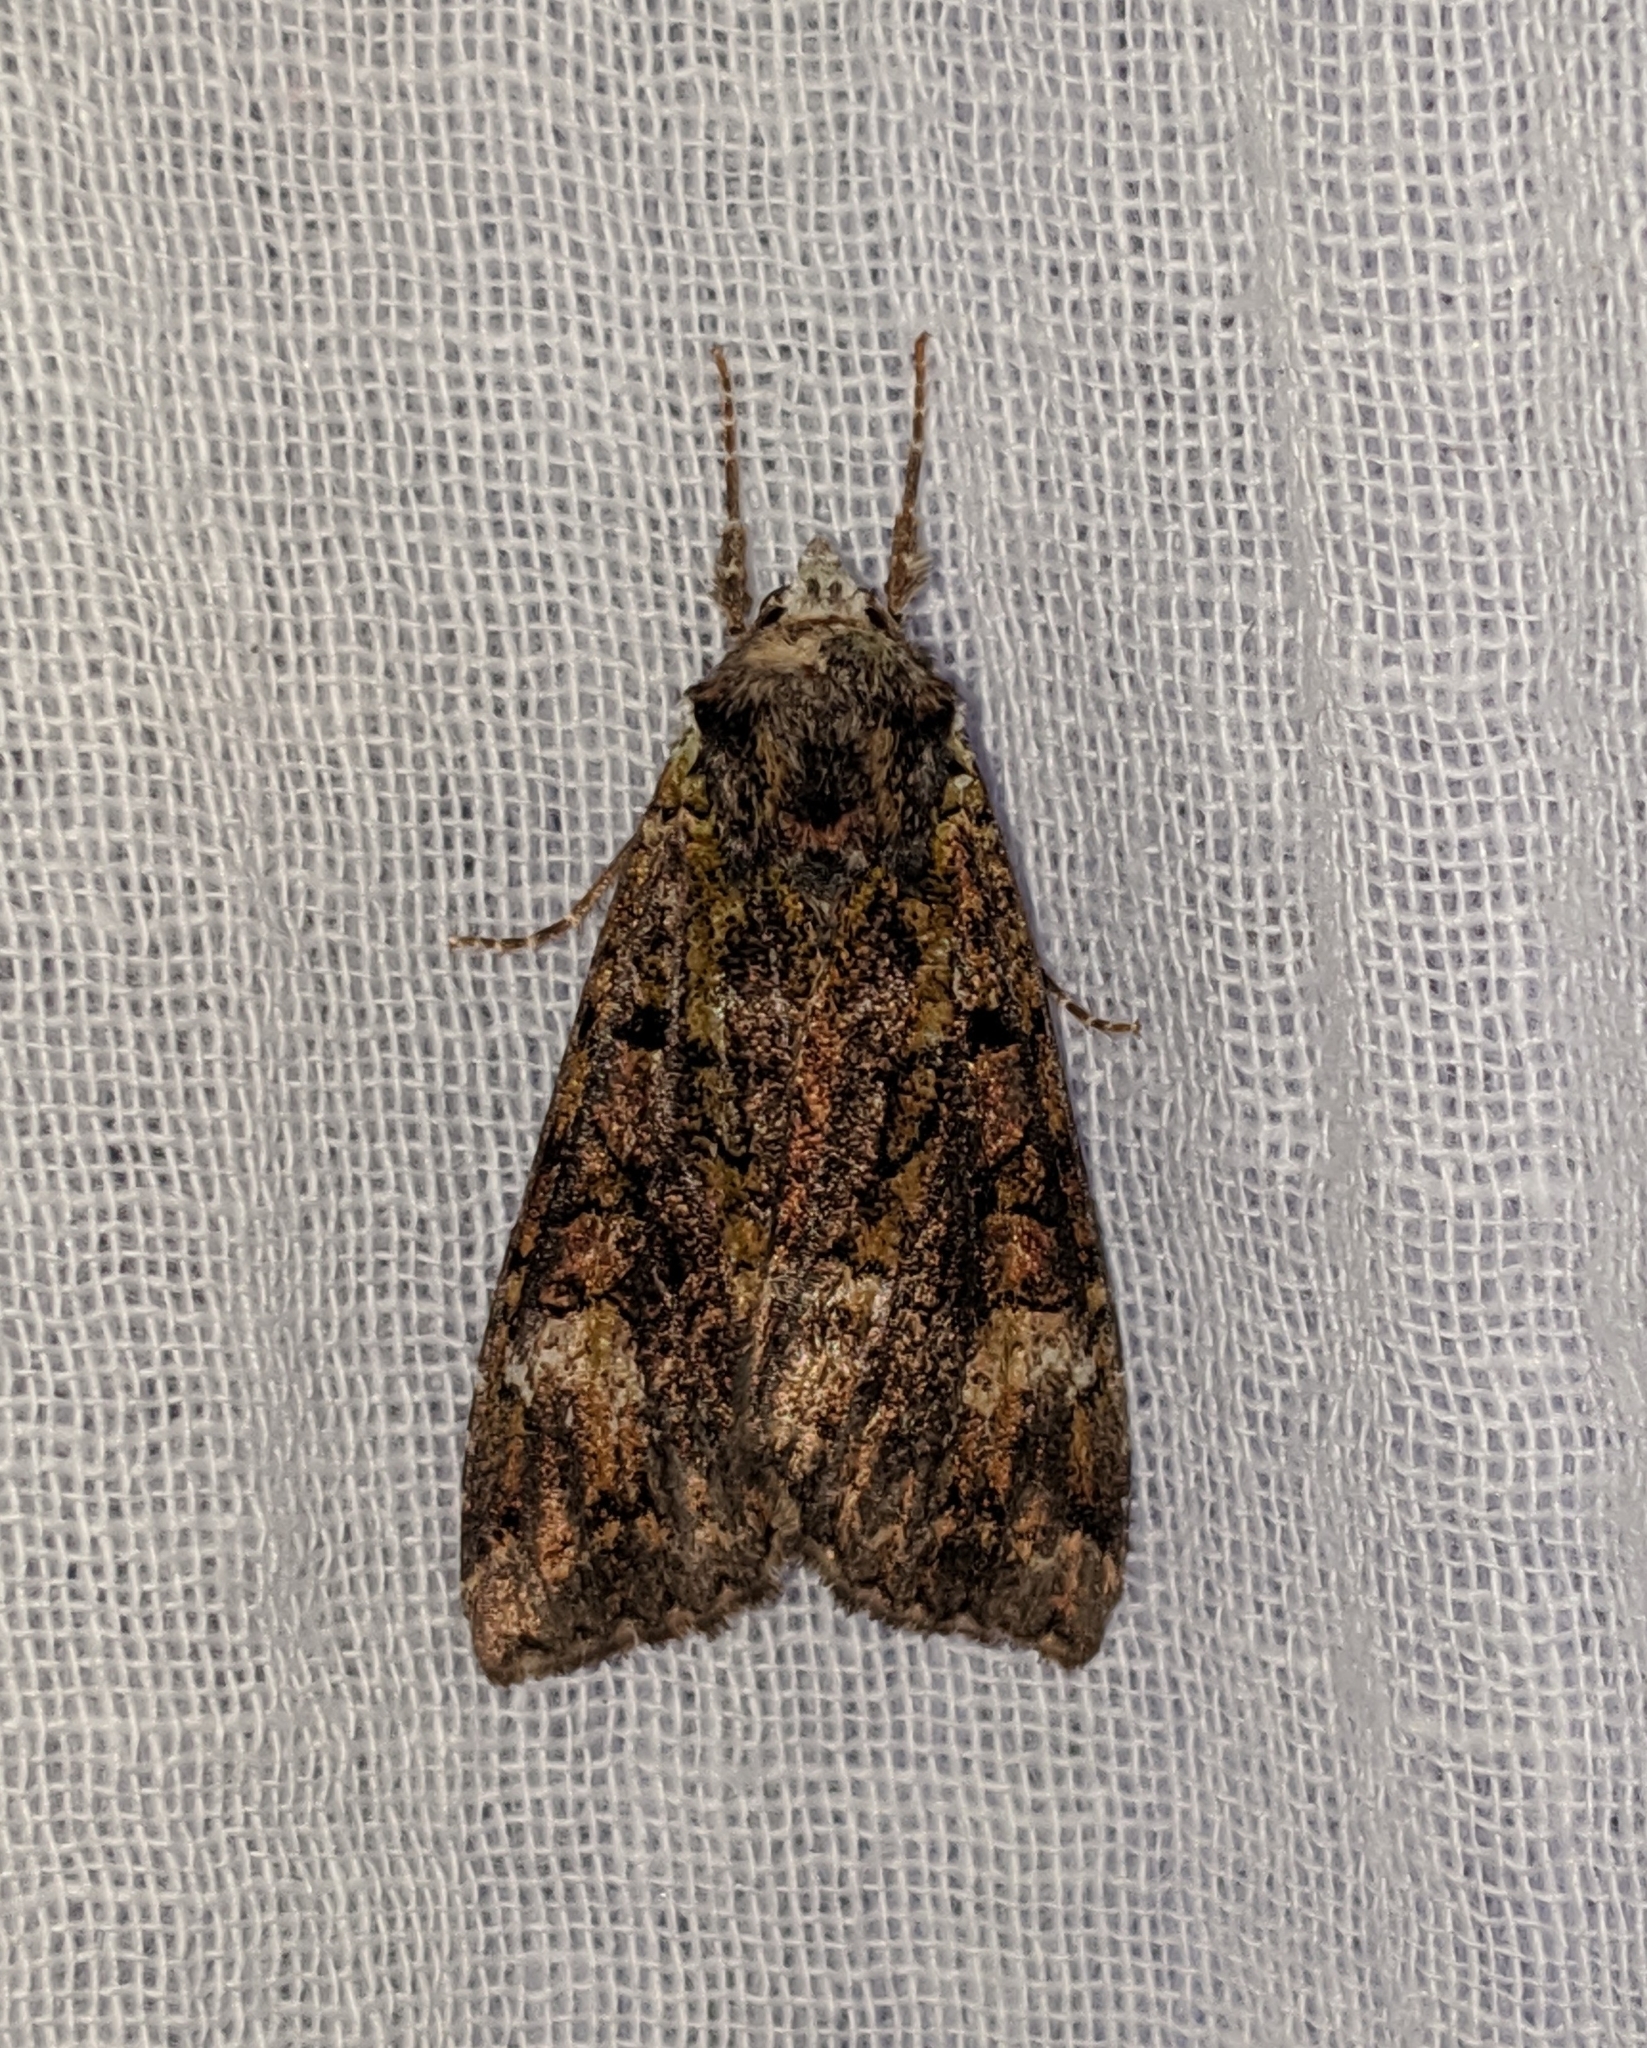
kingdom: Animalia
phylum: Arthropoda
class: Insecta
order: Lepidoptera
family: Noctuidae
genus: Anaplectoides
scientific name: Anaplectoides prasina
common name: Green arches
